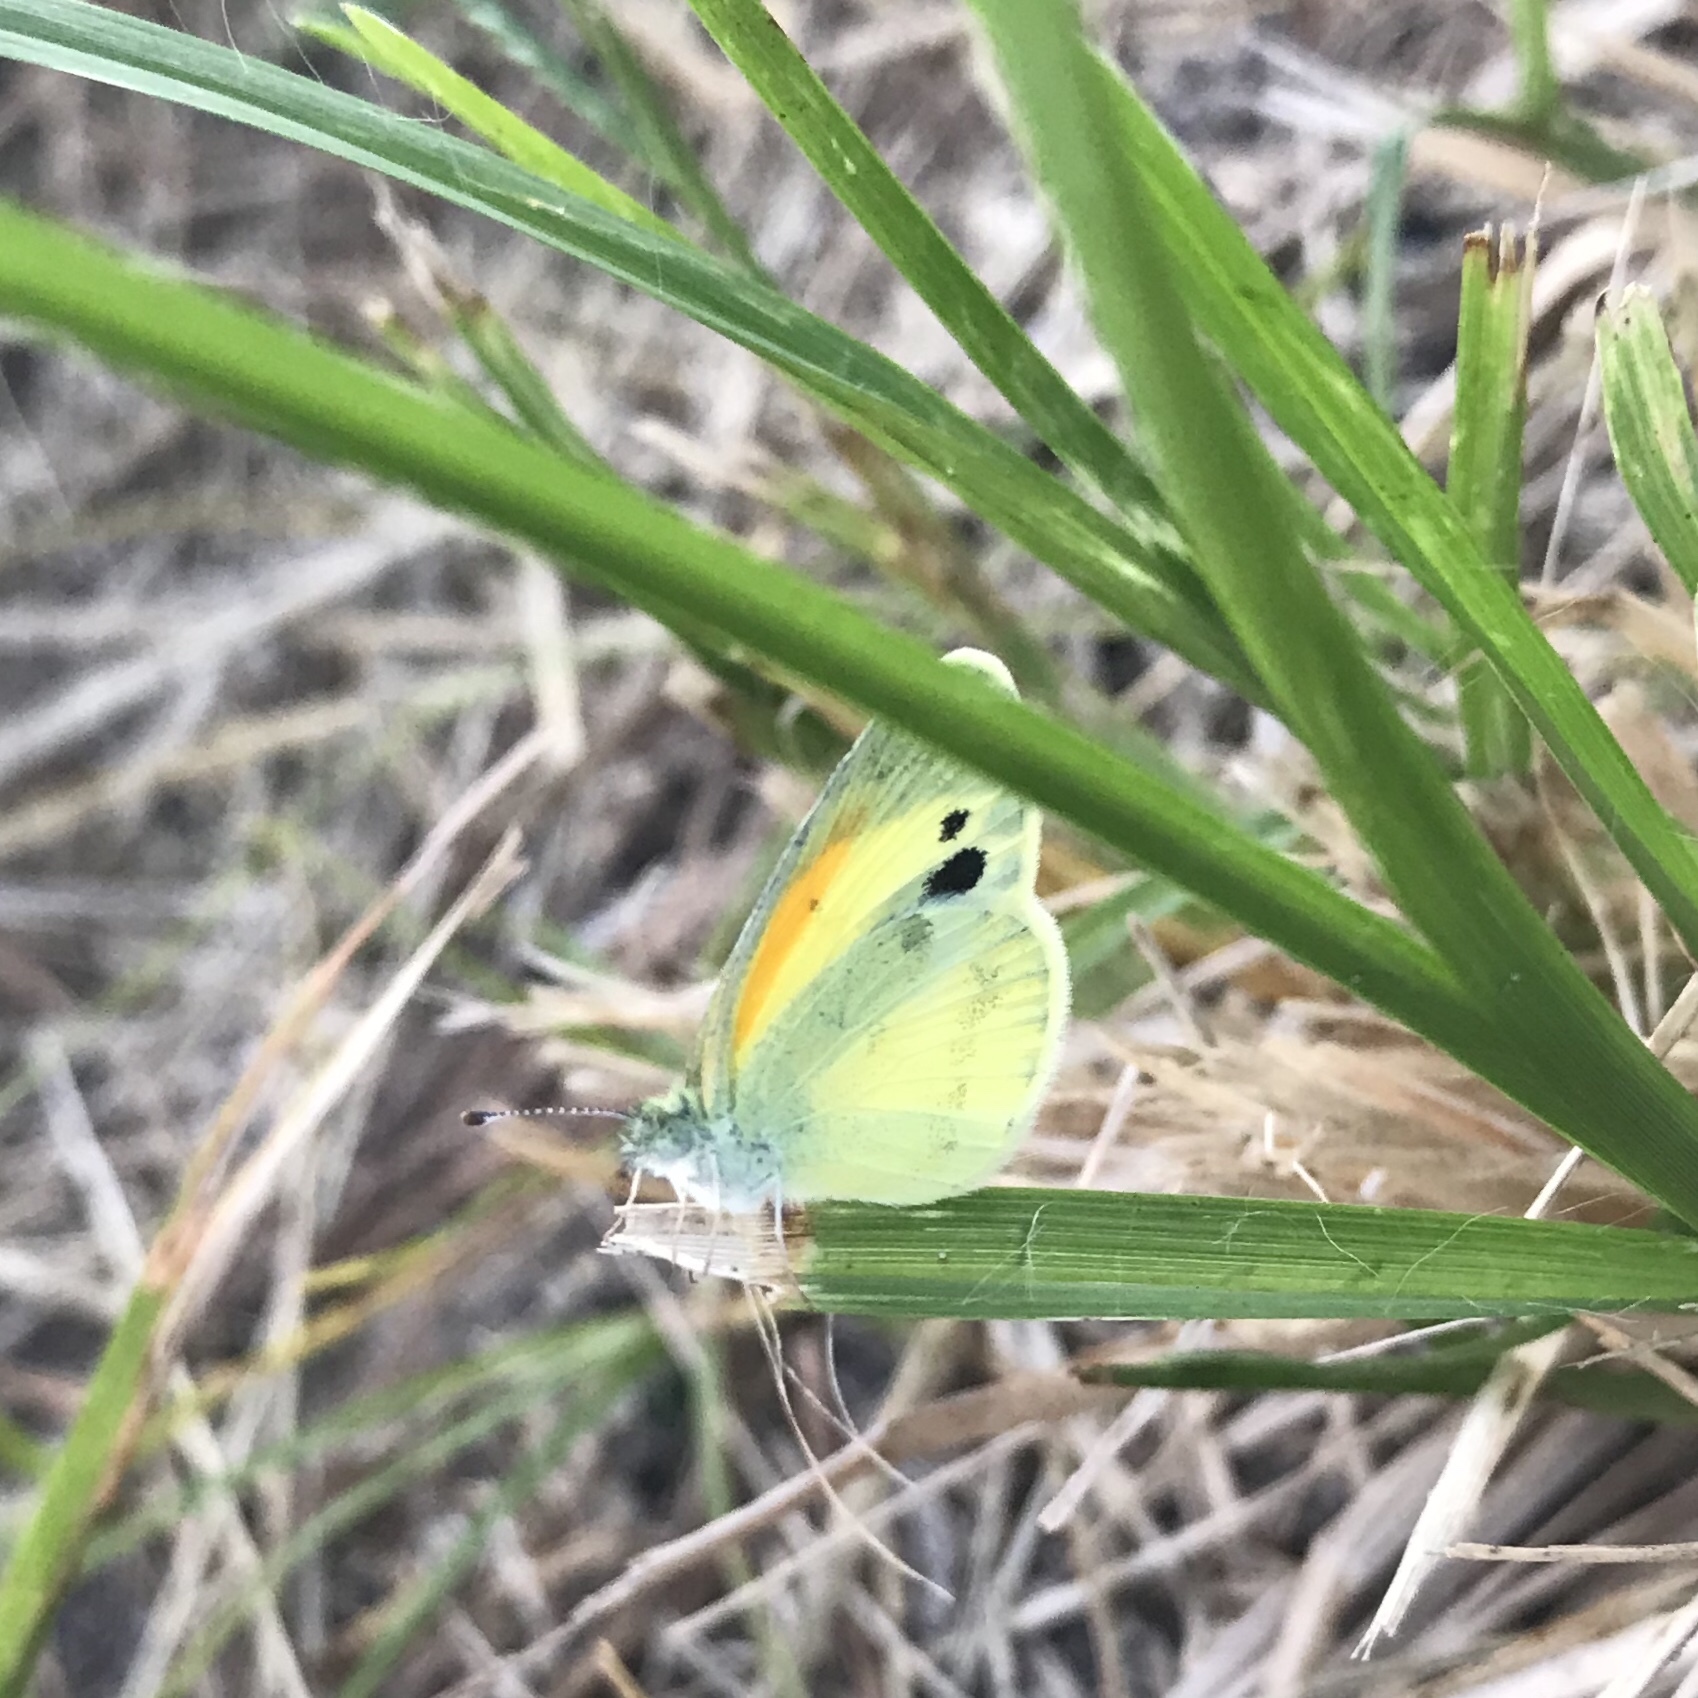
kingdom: Animalia
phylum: Arthropoda
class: Insecta
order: Lepidoptera
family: Pieridae
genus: Nathalis
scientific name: Nathalis iole
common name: Dainty sulphur
